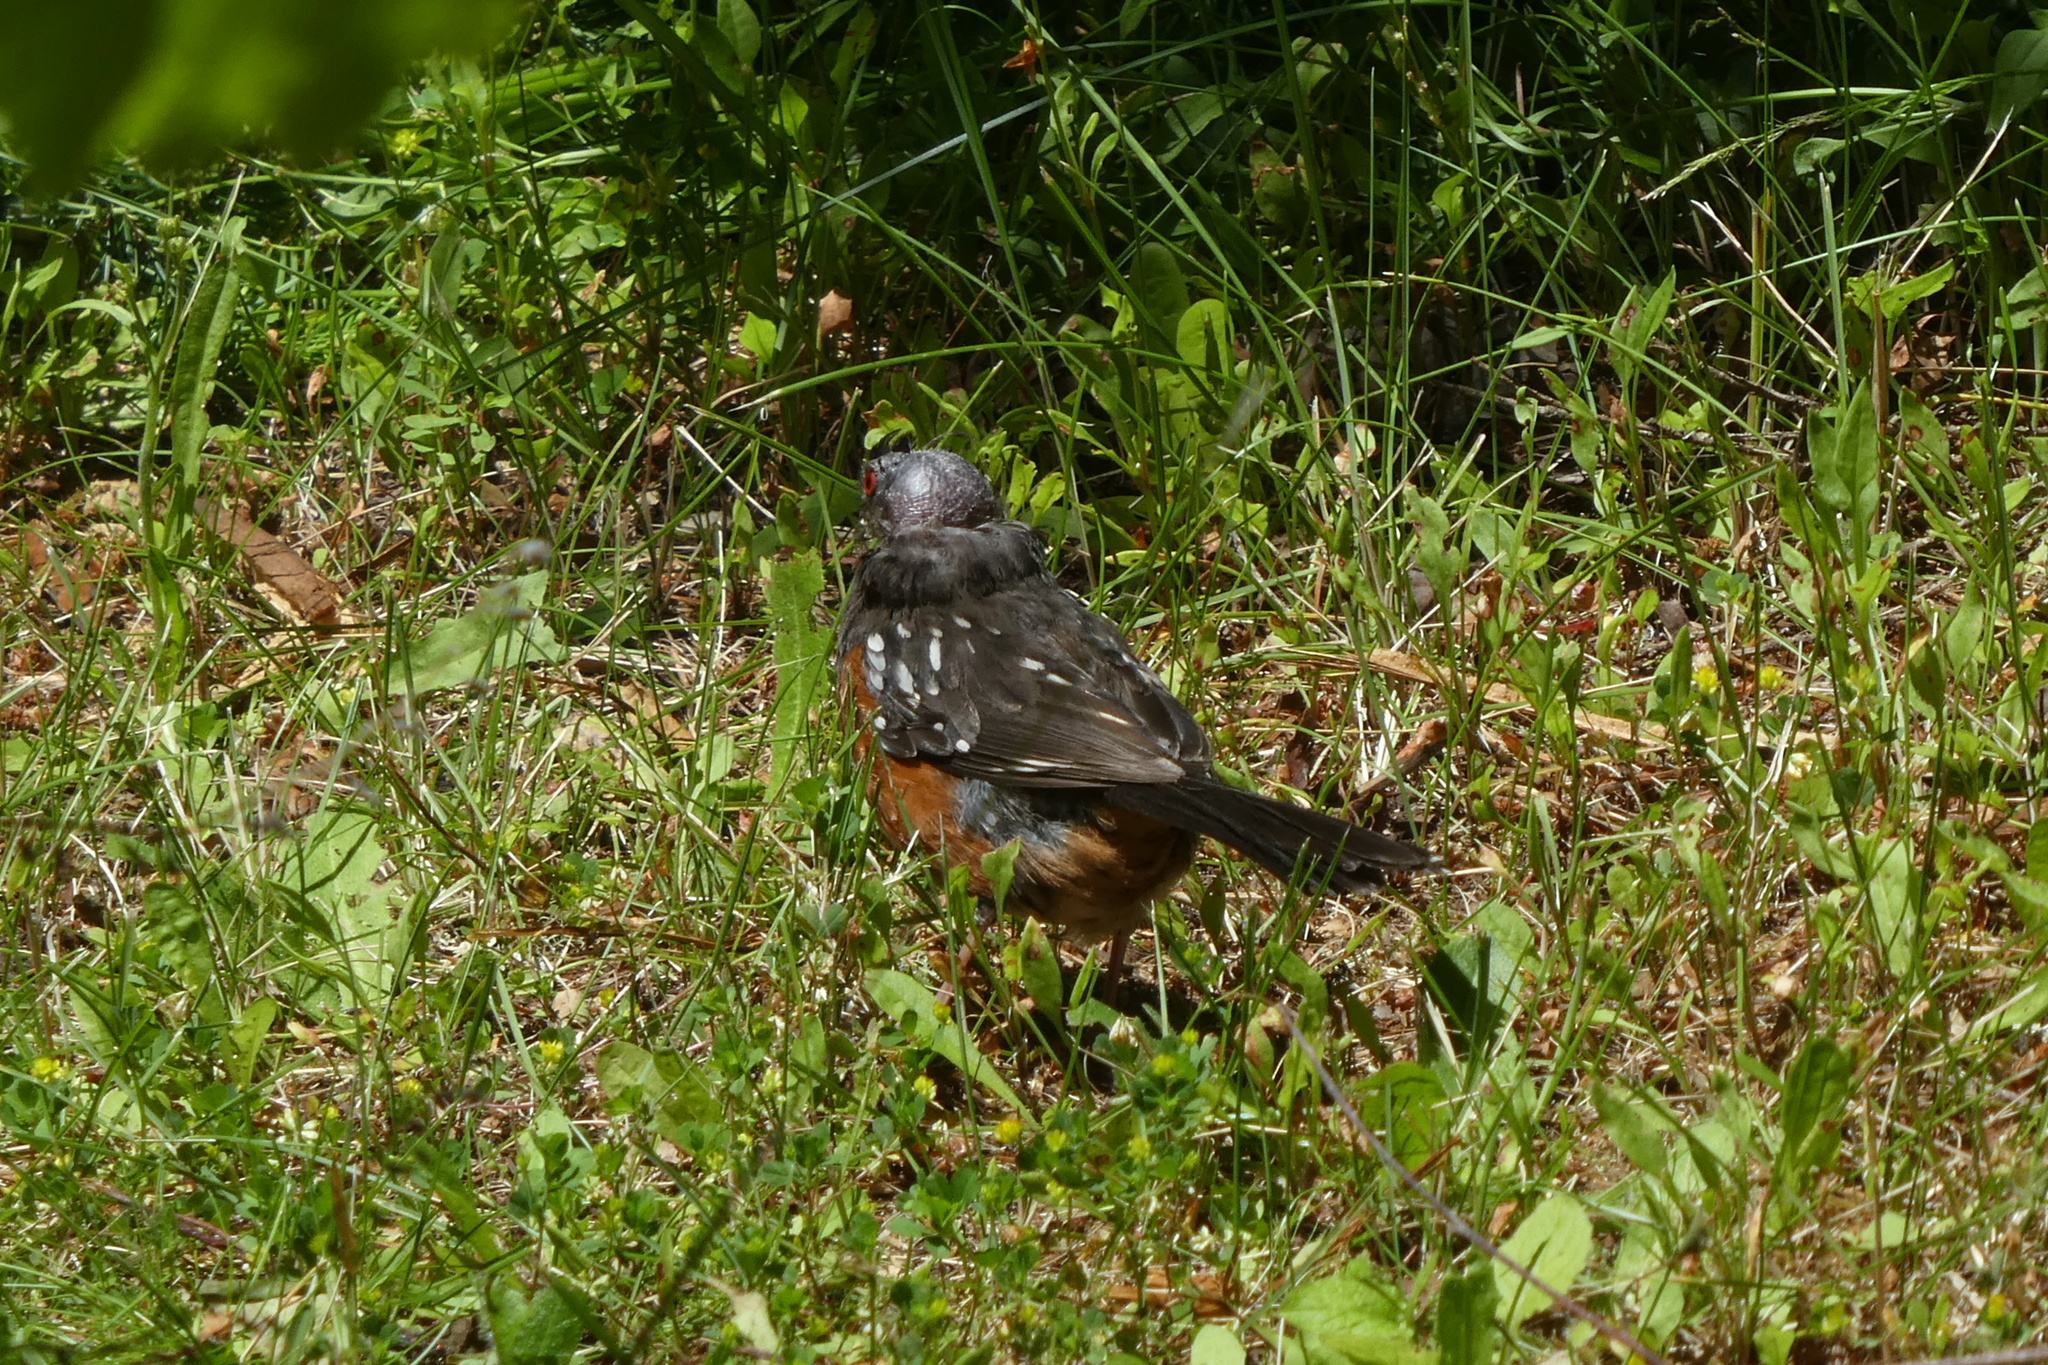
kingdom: Animalia
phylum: Chordata
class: Aves
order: Passeriformes
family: Passerellidae
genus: Pipilo
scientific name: Pipilo maculatus
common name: Spotted towhee
